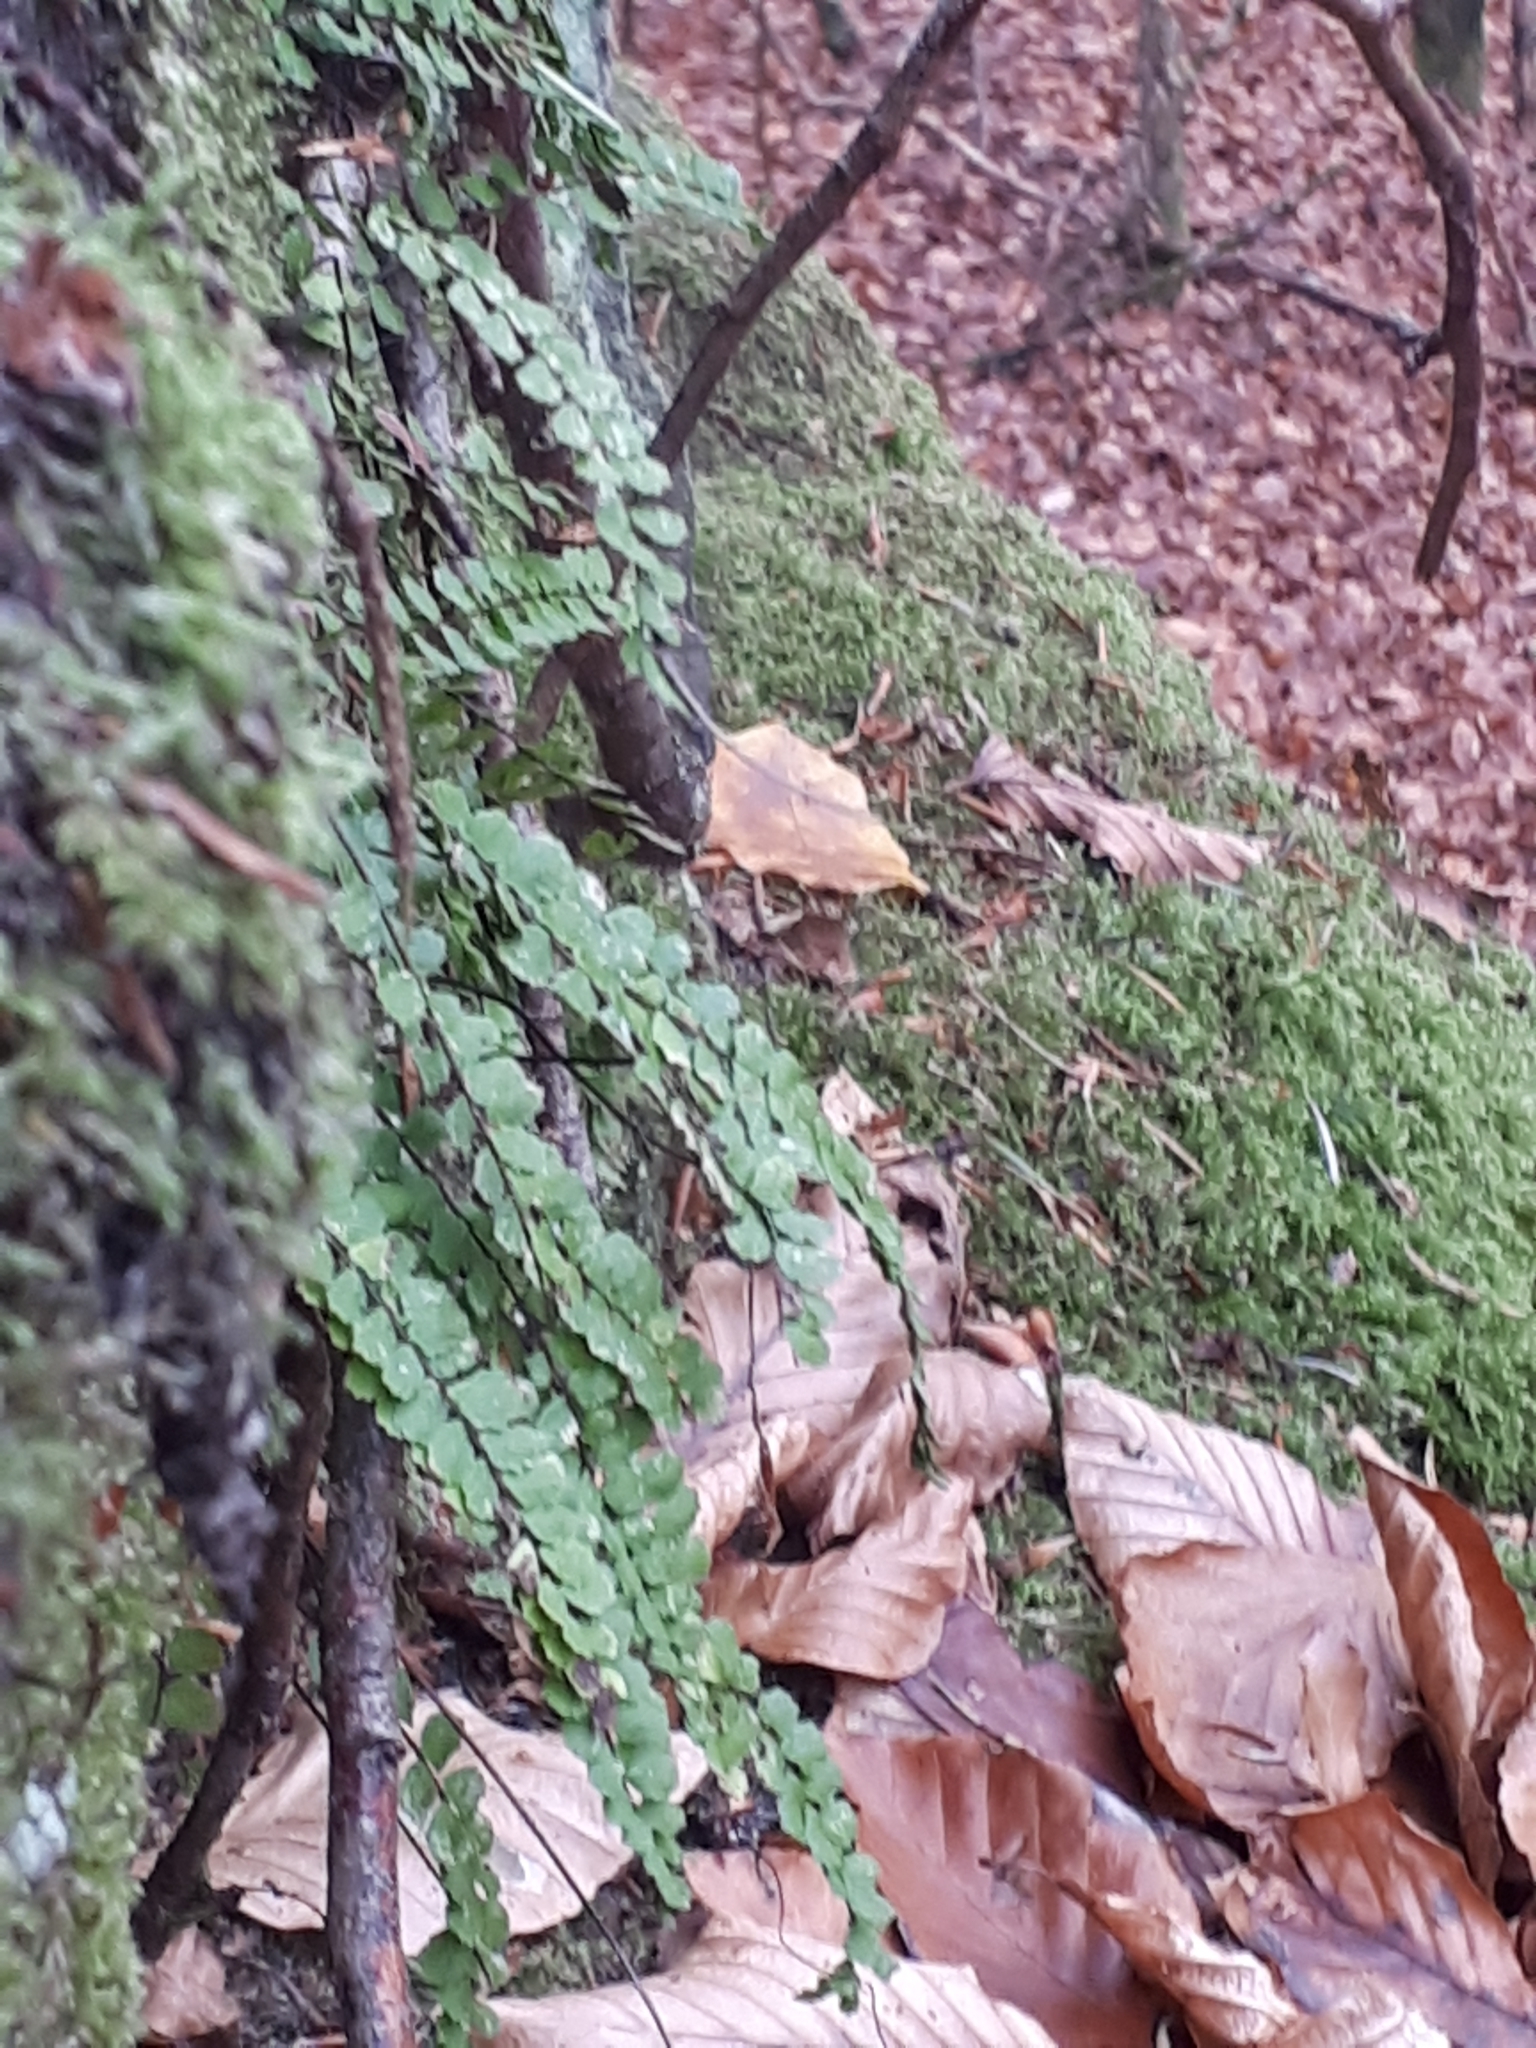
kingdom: Plantae
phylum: Tracheophyta
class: Polypodiopsida
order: Polypodiales
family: Aspleniaceae
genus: Asplenium
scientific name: Asplenium trichomanes
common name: Maidenhair spleenwort
